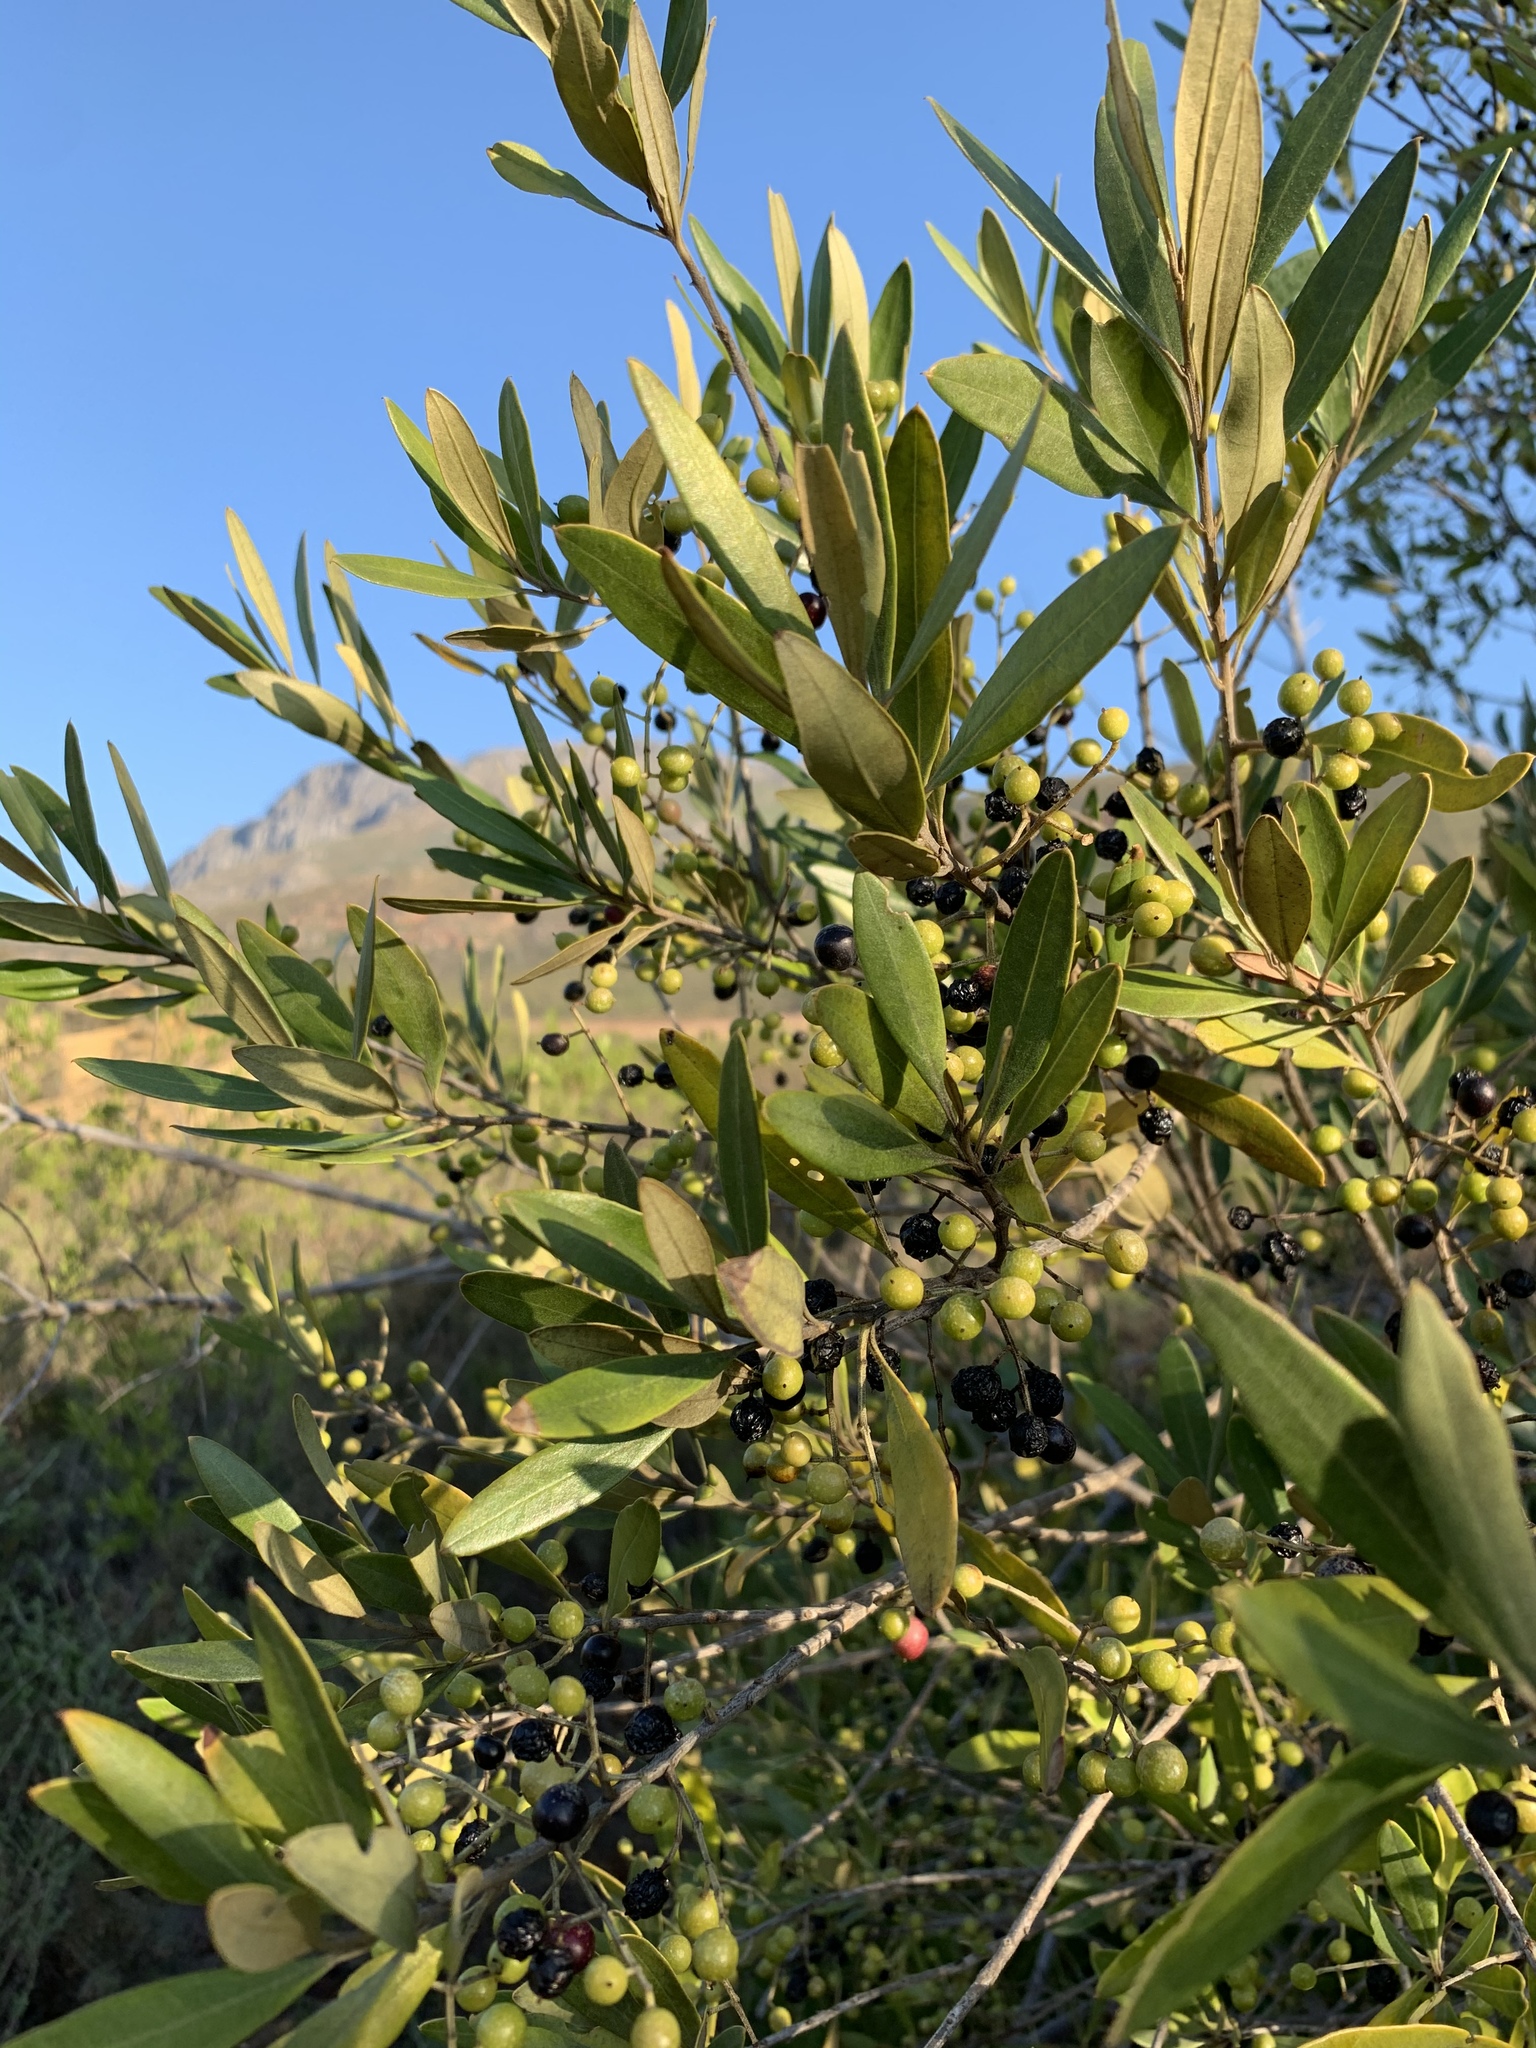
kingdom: Plantae
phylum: Tracheophyta
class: Magnoliopsida
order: Lamiales
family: Oleaceae
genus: Olea
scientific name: Olea europaea
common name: Olive
